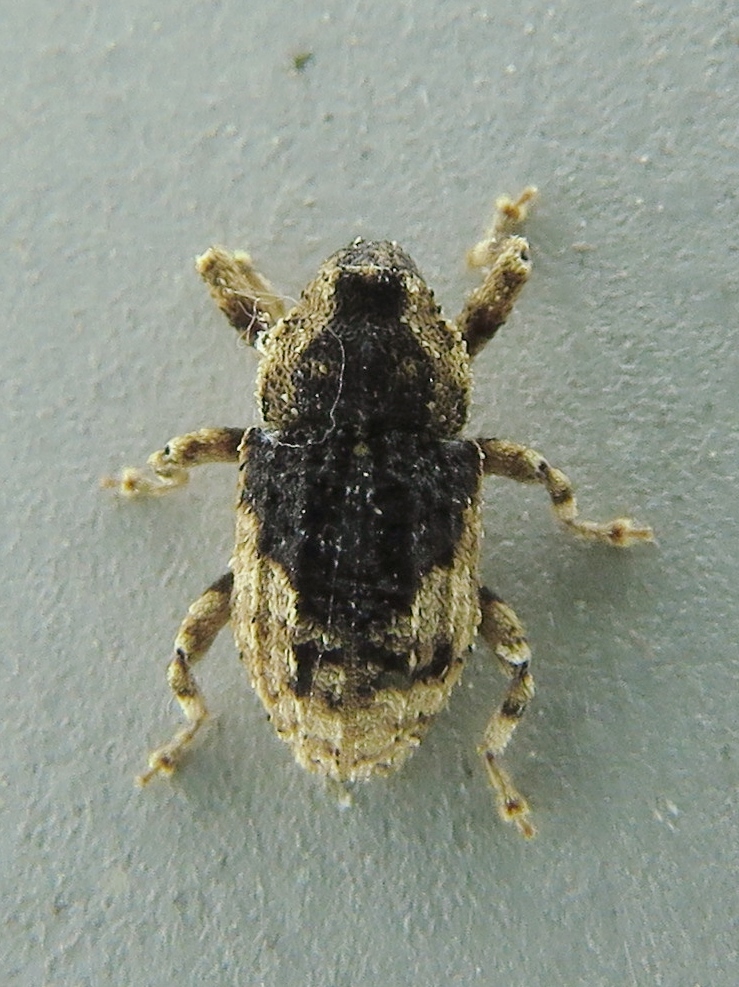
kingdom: Animalia
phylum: Arthropoda
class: Insecta
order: Coleoptera
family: Curculionidae
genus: Cophes
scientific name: Cophes fallax
